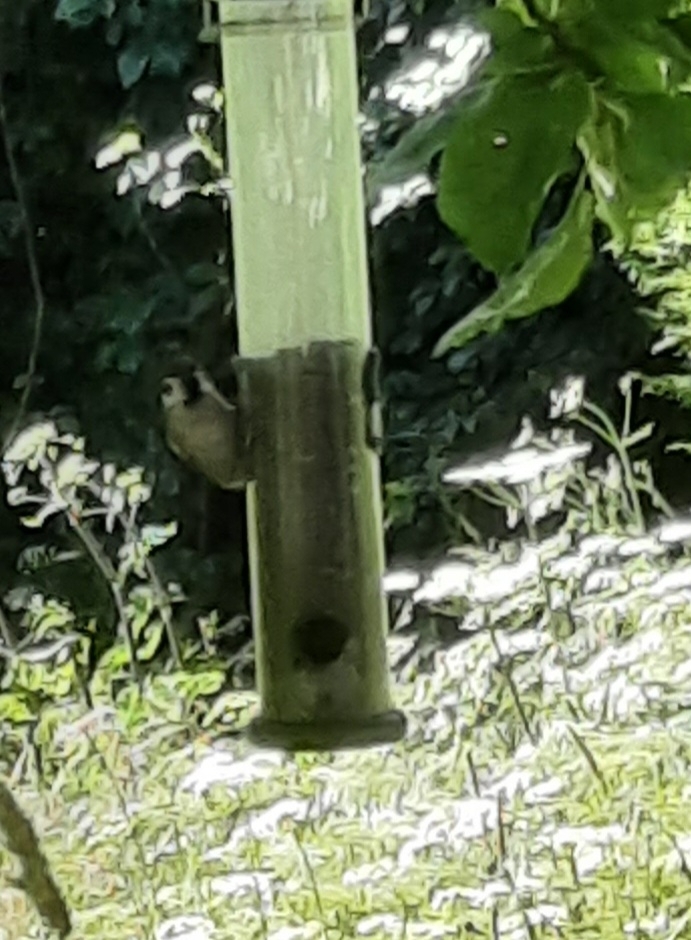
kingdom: Animalia
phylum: Chordata
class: Aves
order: Passeriformes
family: Passeridae
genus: Passer
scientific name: Passer montanus
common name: Eurasian tree sparrow
